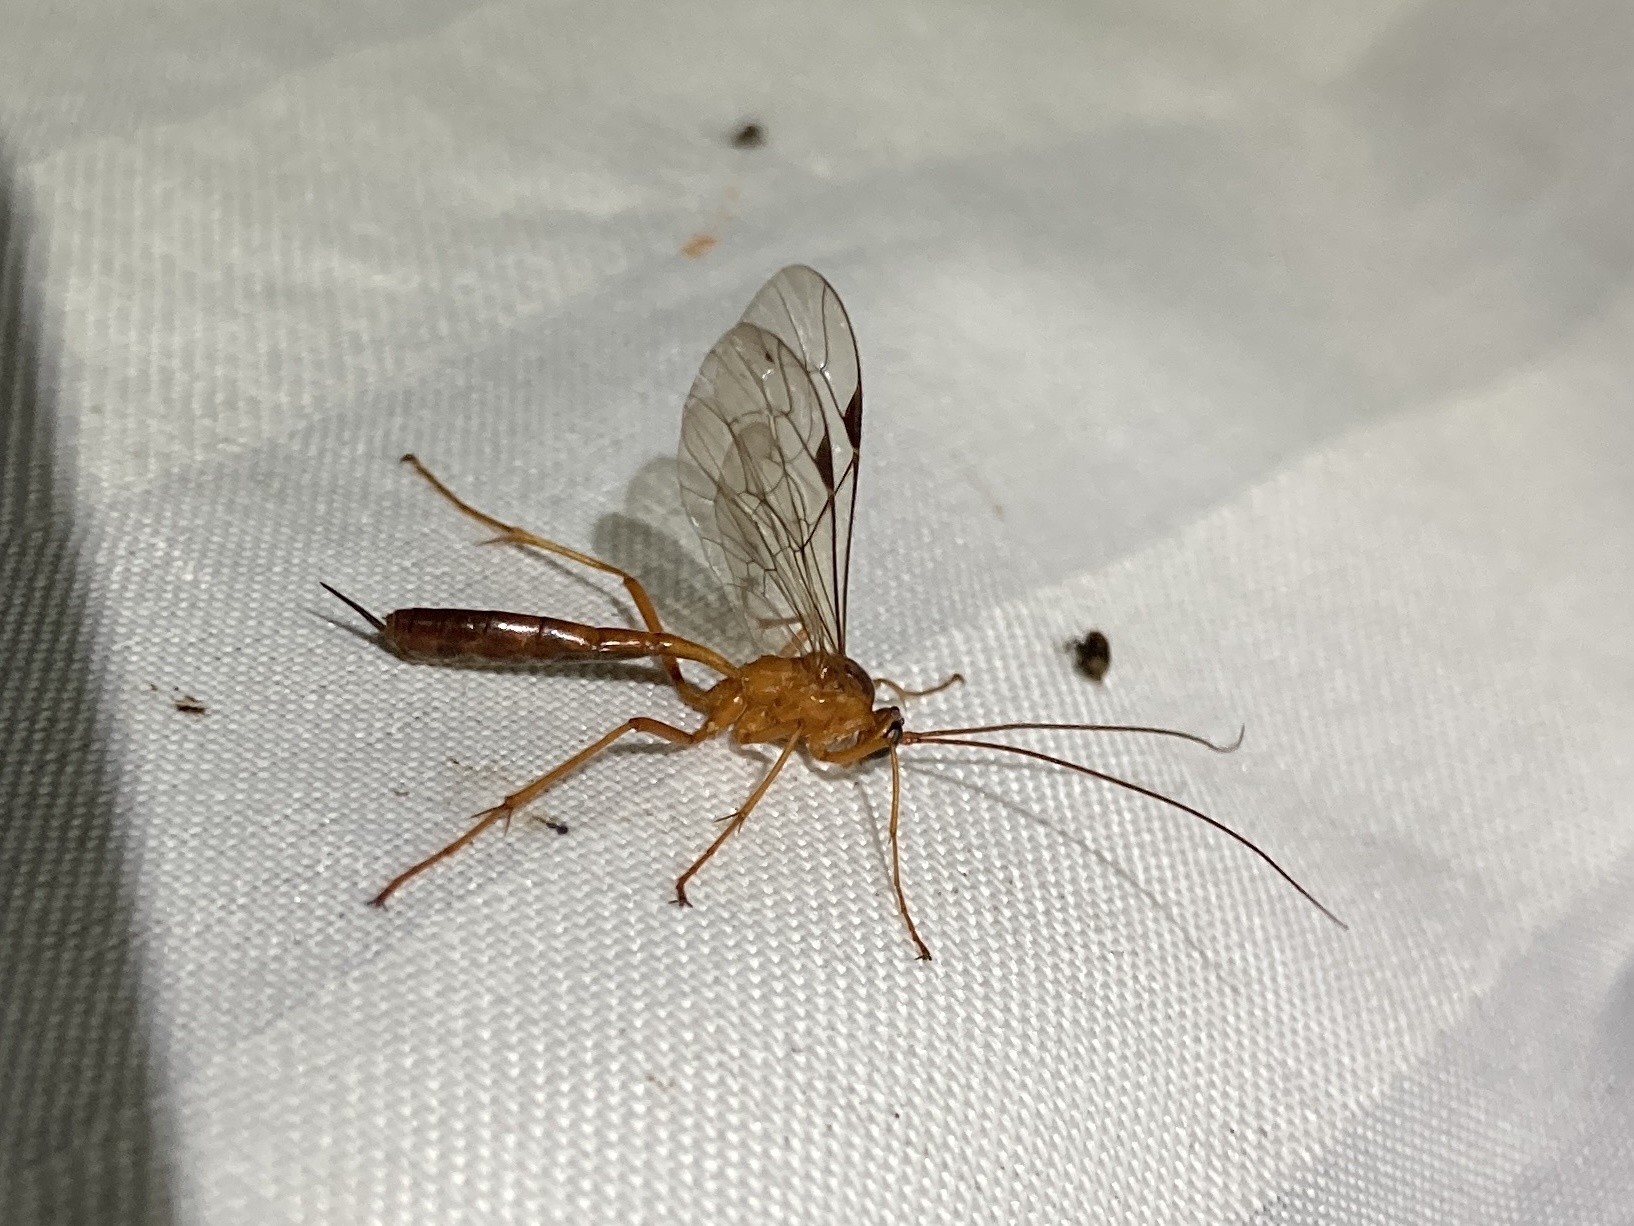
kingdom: Animalia
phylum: Arthropoda
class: Insecta
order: Hymenoptera
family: Ichneumonidae
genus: Netelia
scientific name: Netelia ephippiata
